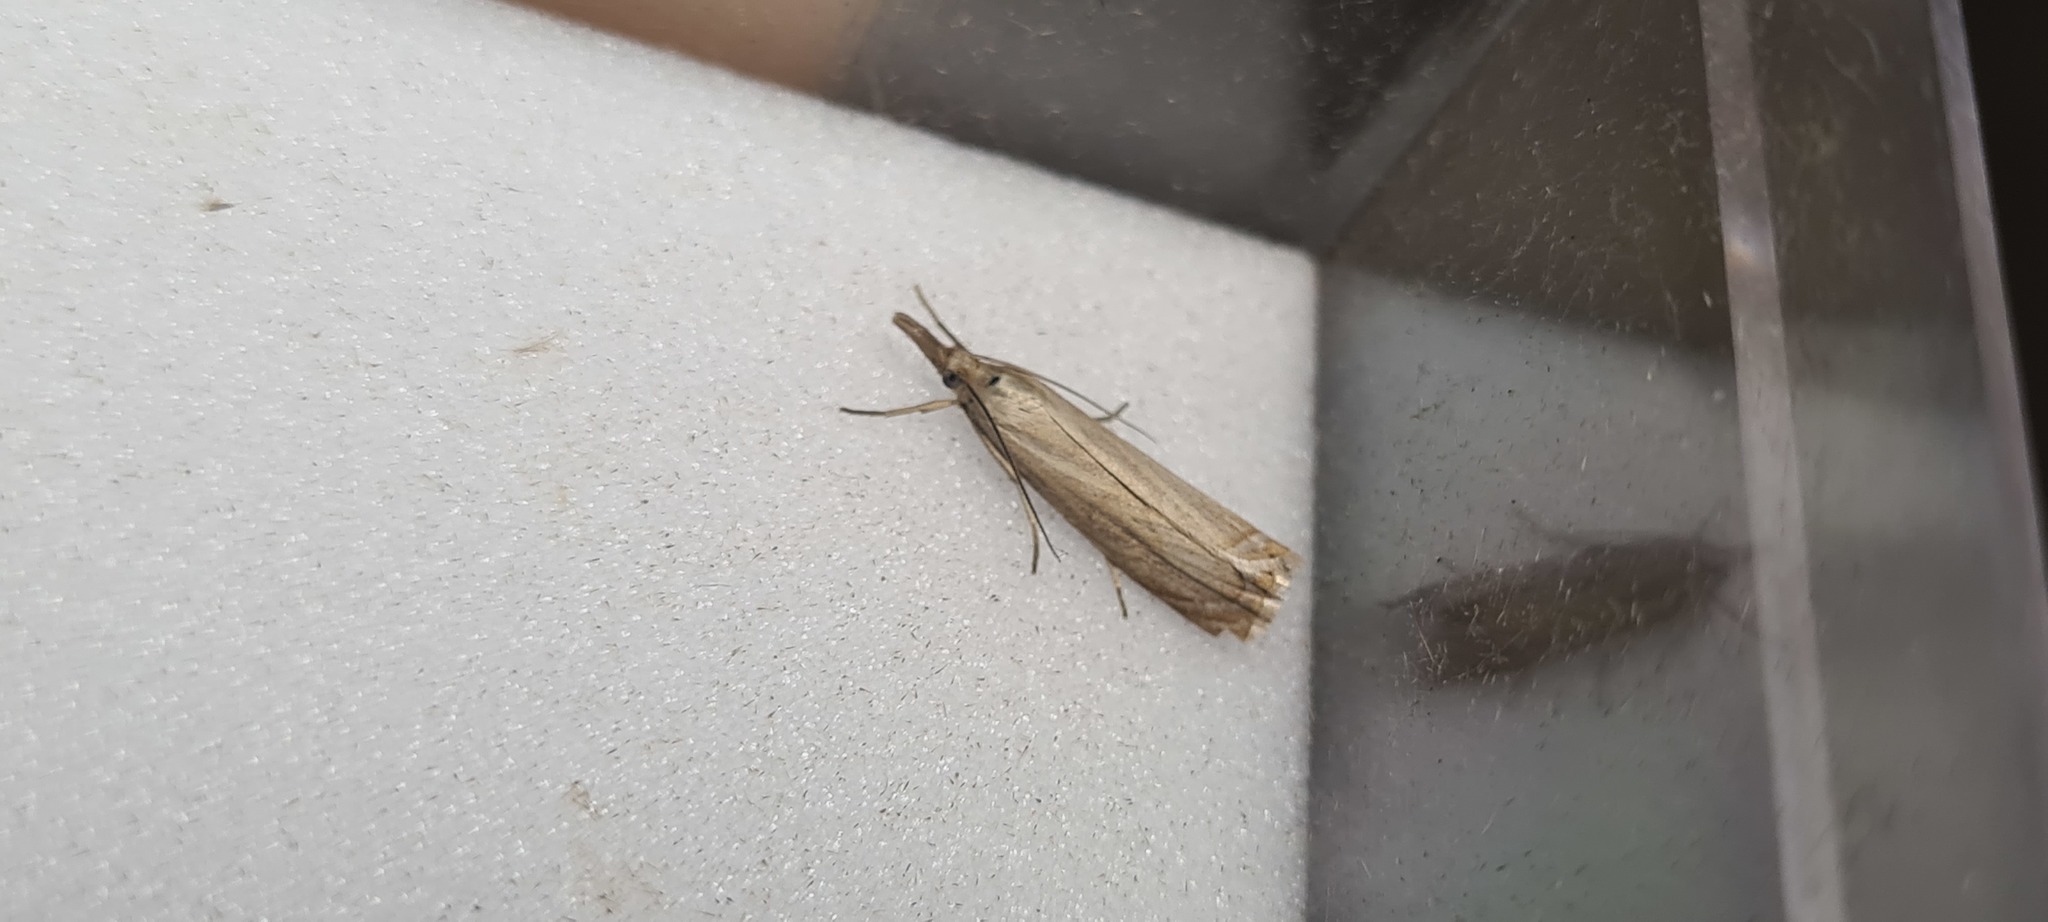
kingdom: Animalia
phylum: Arthropoda
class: Insecta
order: Lepidoptera
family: Crambidae
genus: Chrysoteuchia
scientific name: Chrysoteuchia culmella
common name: Garden grass-veneer
